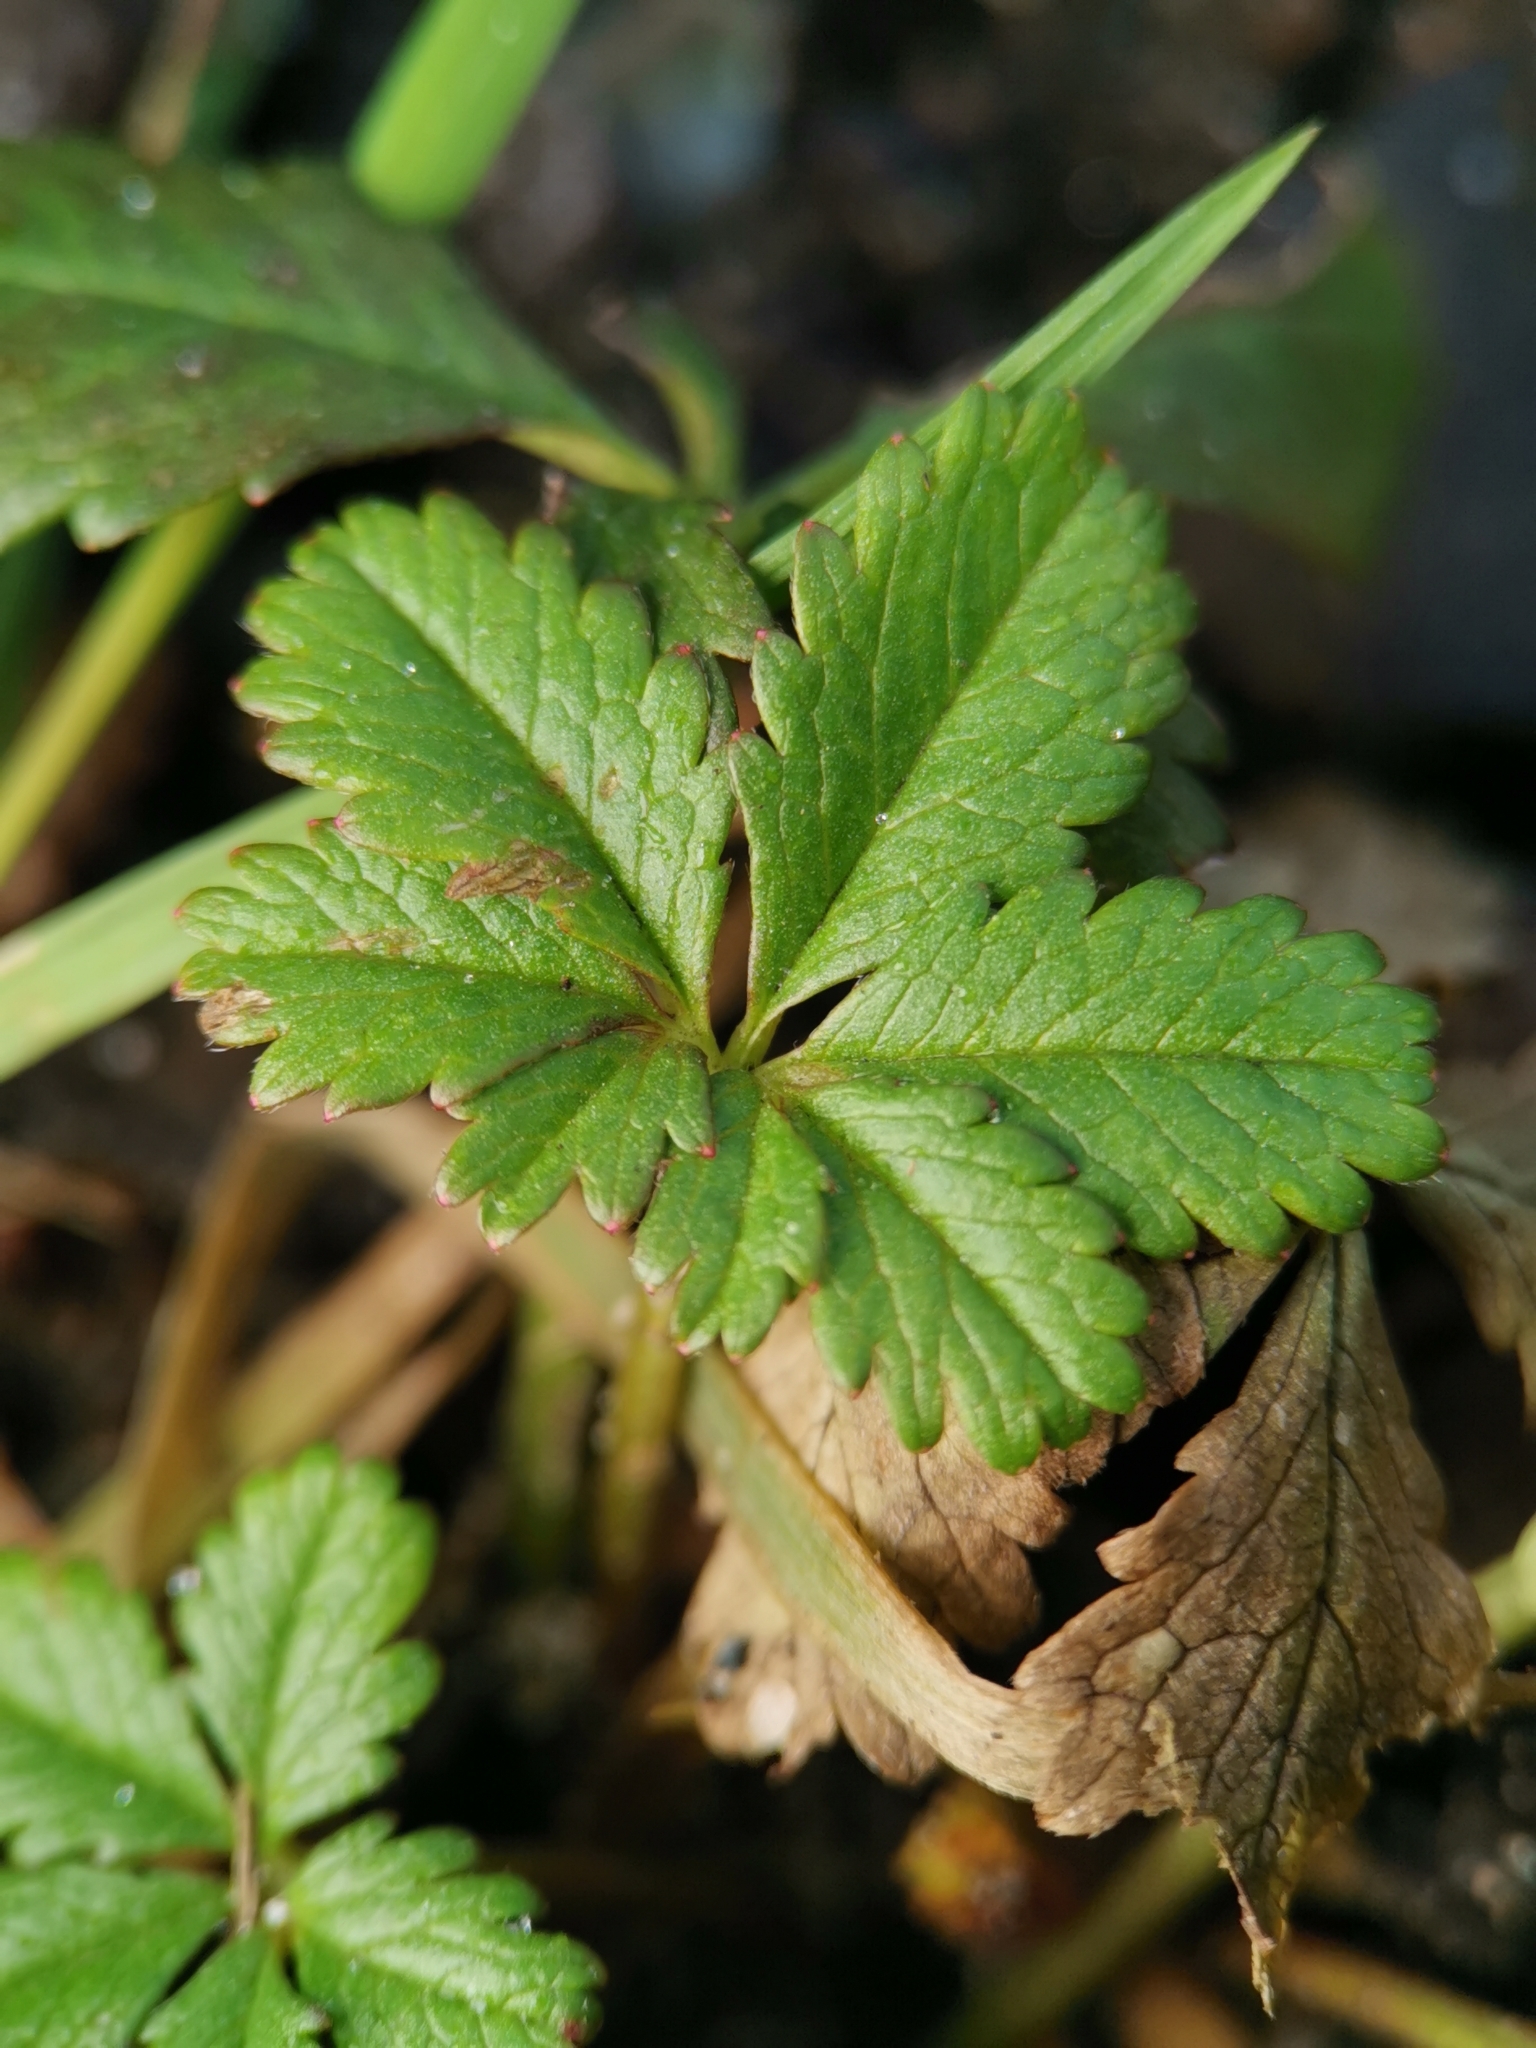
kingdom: Plantae
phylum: Tracheophyta
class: Magnoliopsida
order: Rosales
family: Rosaceae
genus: Potentilla
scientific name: Potentilla reptans
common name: Creeping cinquefoil
